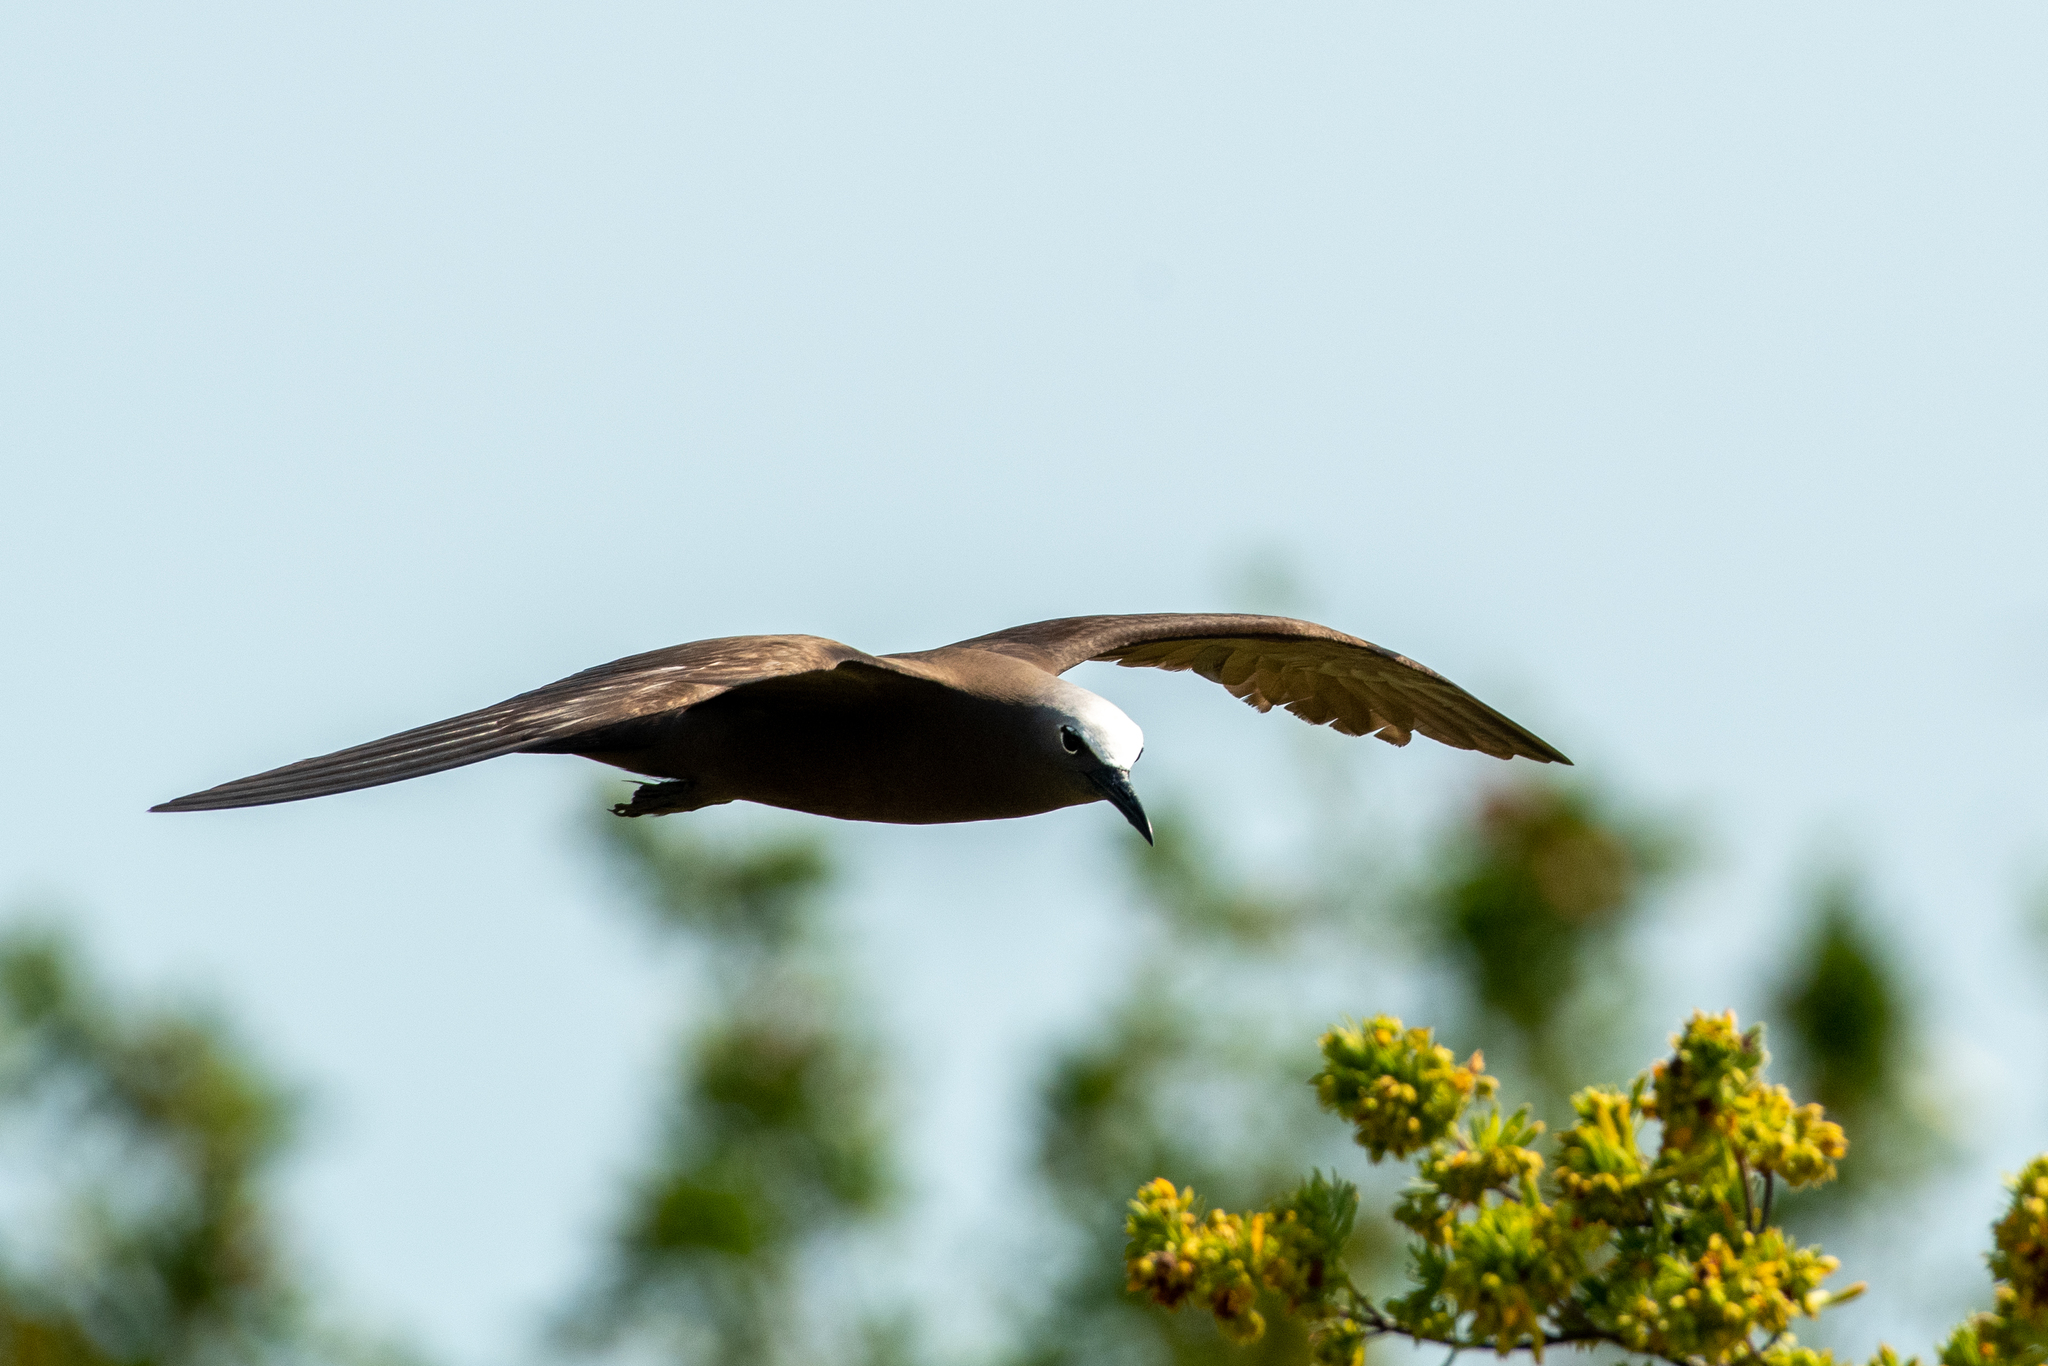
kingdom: Animalia
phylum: Chordata
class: Aves
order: Charadriiformes
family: Laridae
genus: Anous
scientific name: Anous stolidus
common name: Brown noddy
